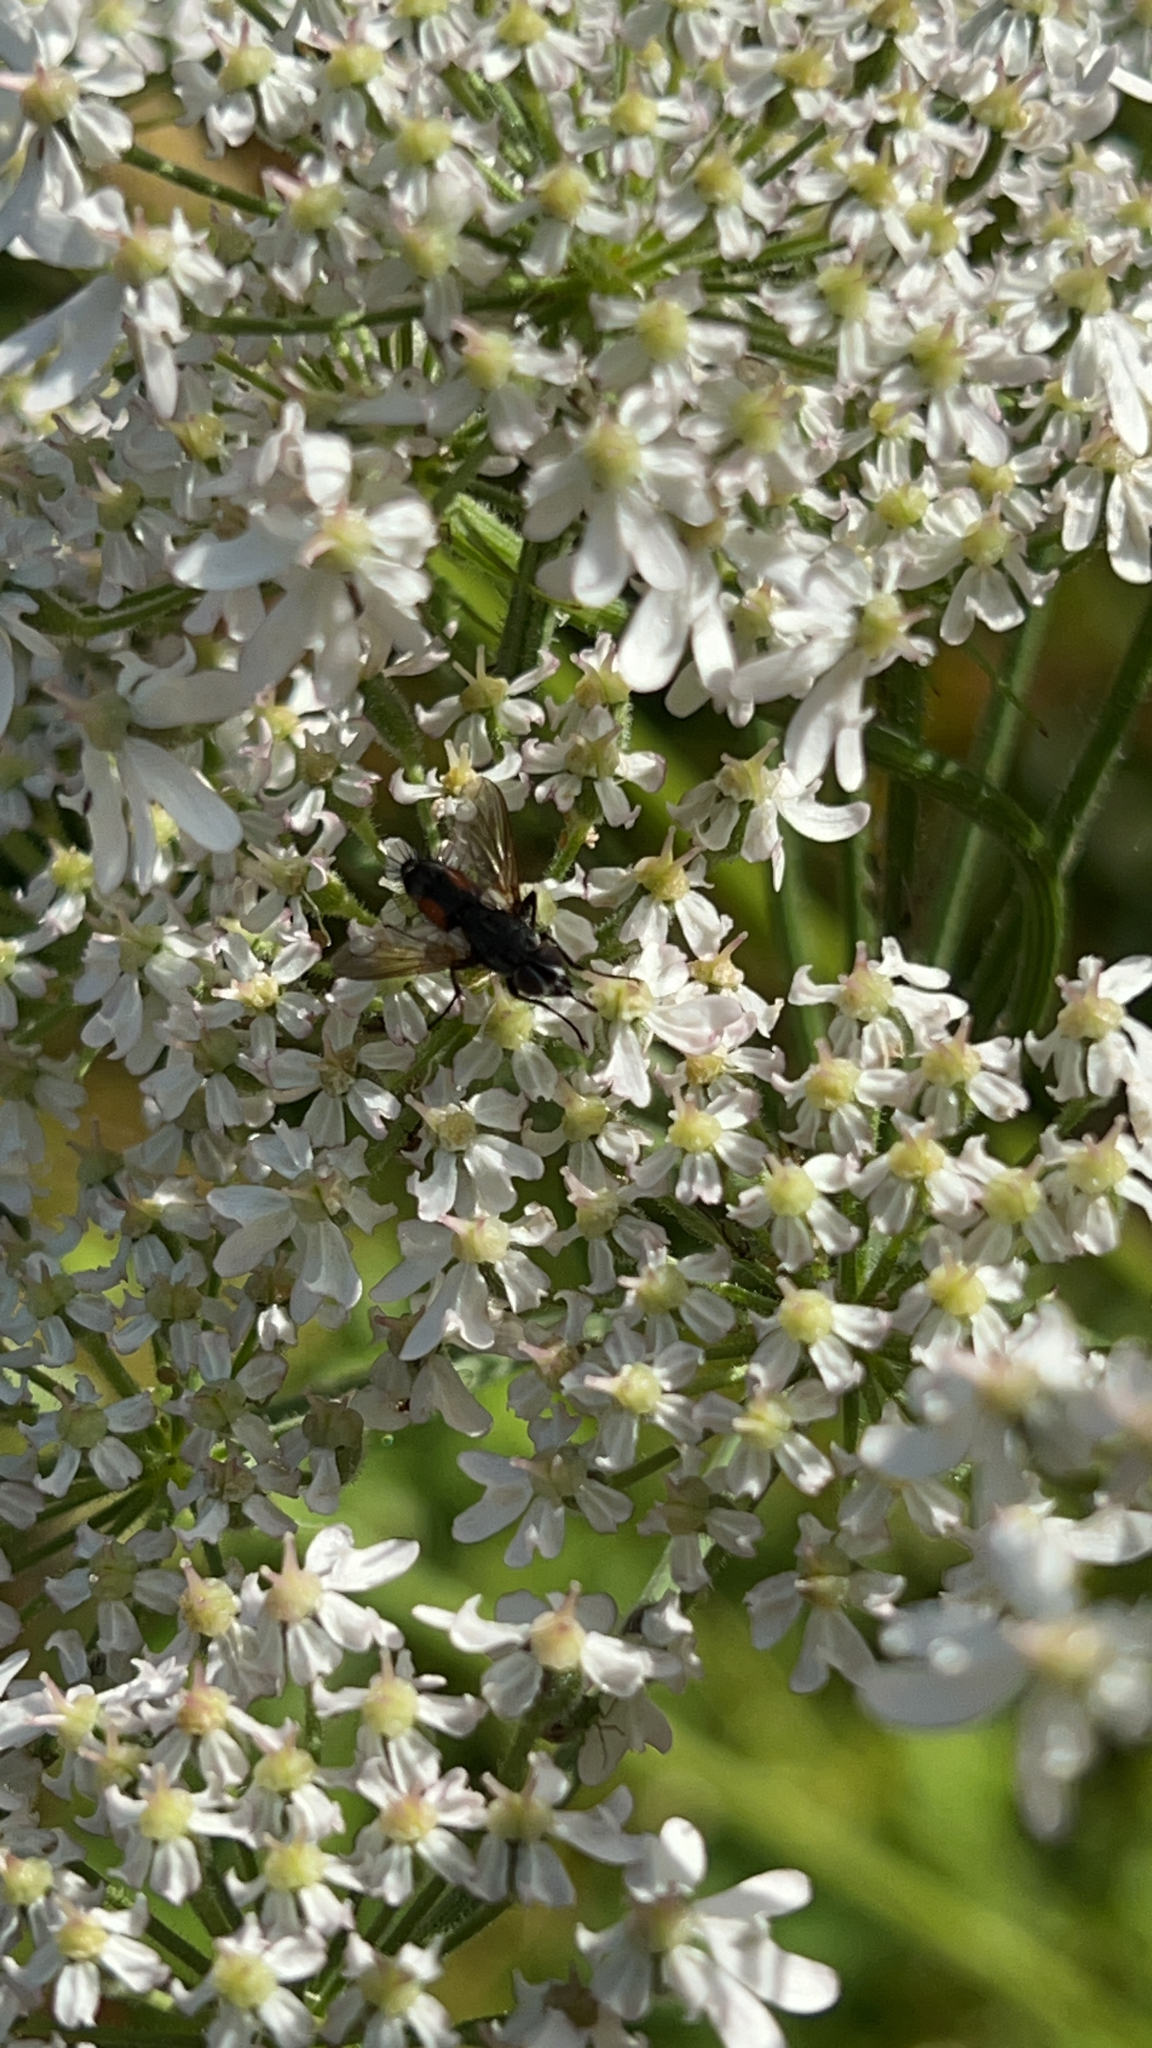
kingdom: Animalia
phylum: Arthropoda
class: Insecta
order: Diptera
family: Tachinidae
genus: Eriothrix
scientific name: Eriothrix rufomaculatus
